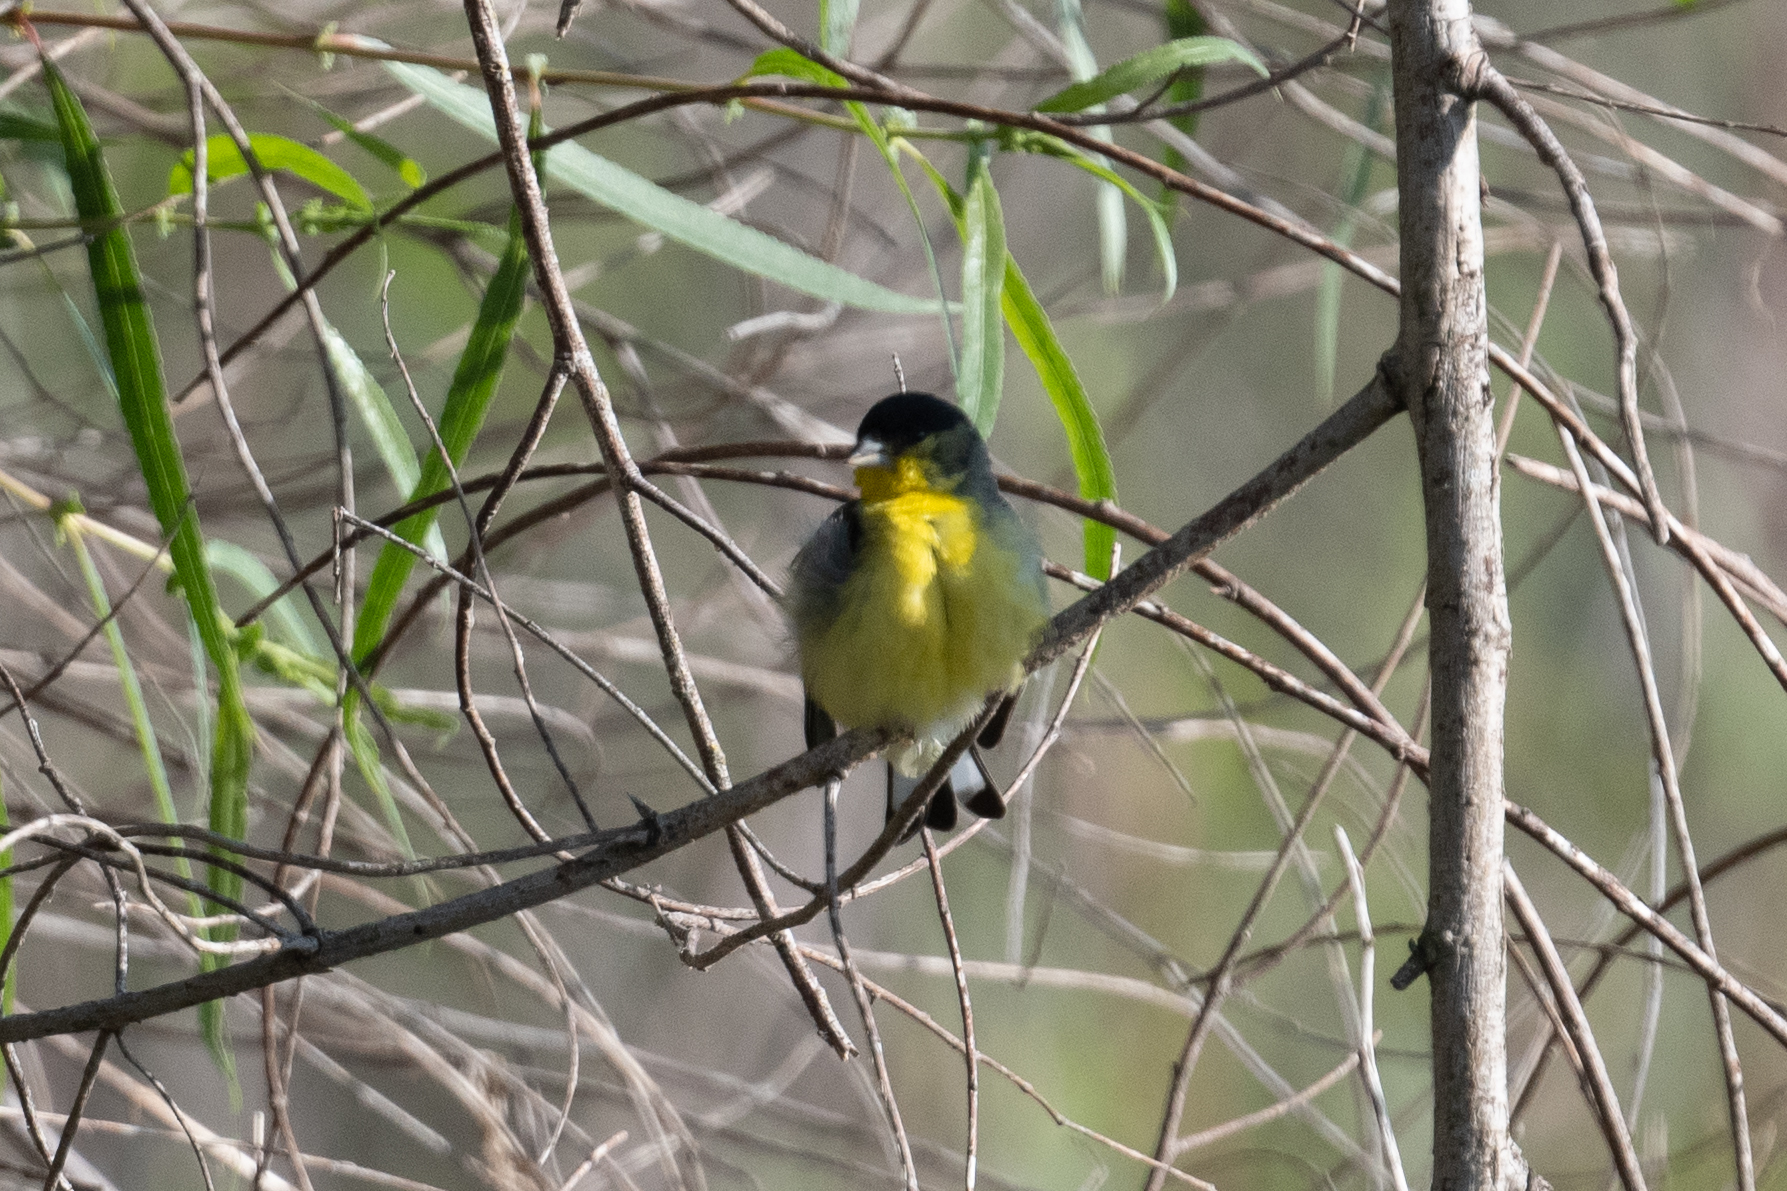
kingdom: Animalia
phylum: Chordata
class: Aves
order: Passeriformes
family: Fringillidae
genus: Spinus
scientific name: Spinus psaltria
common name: Lesser goldfinch
